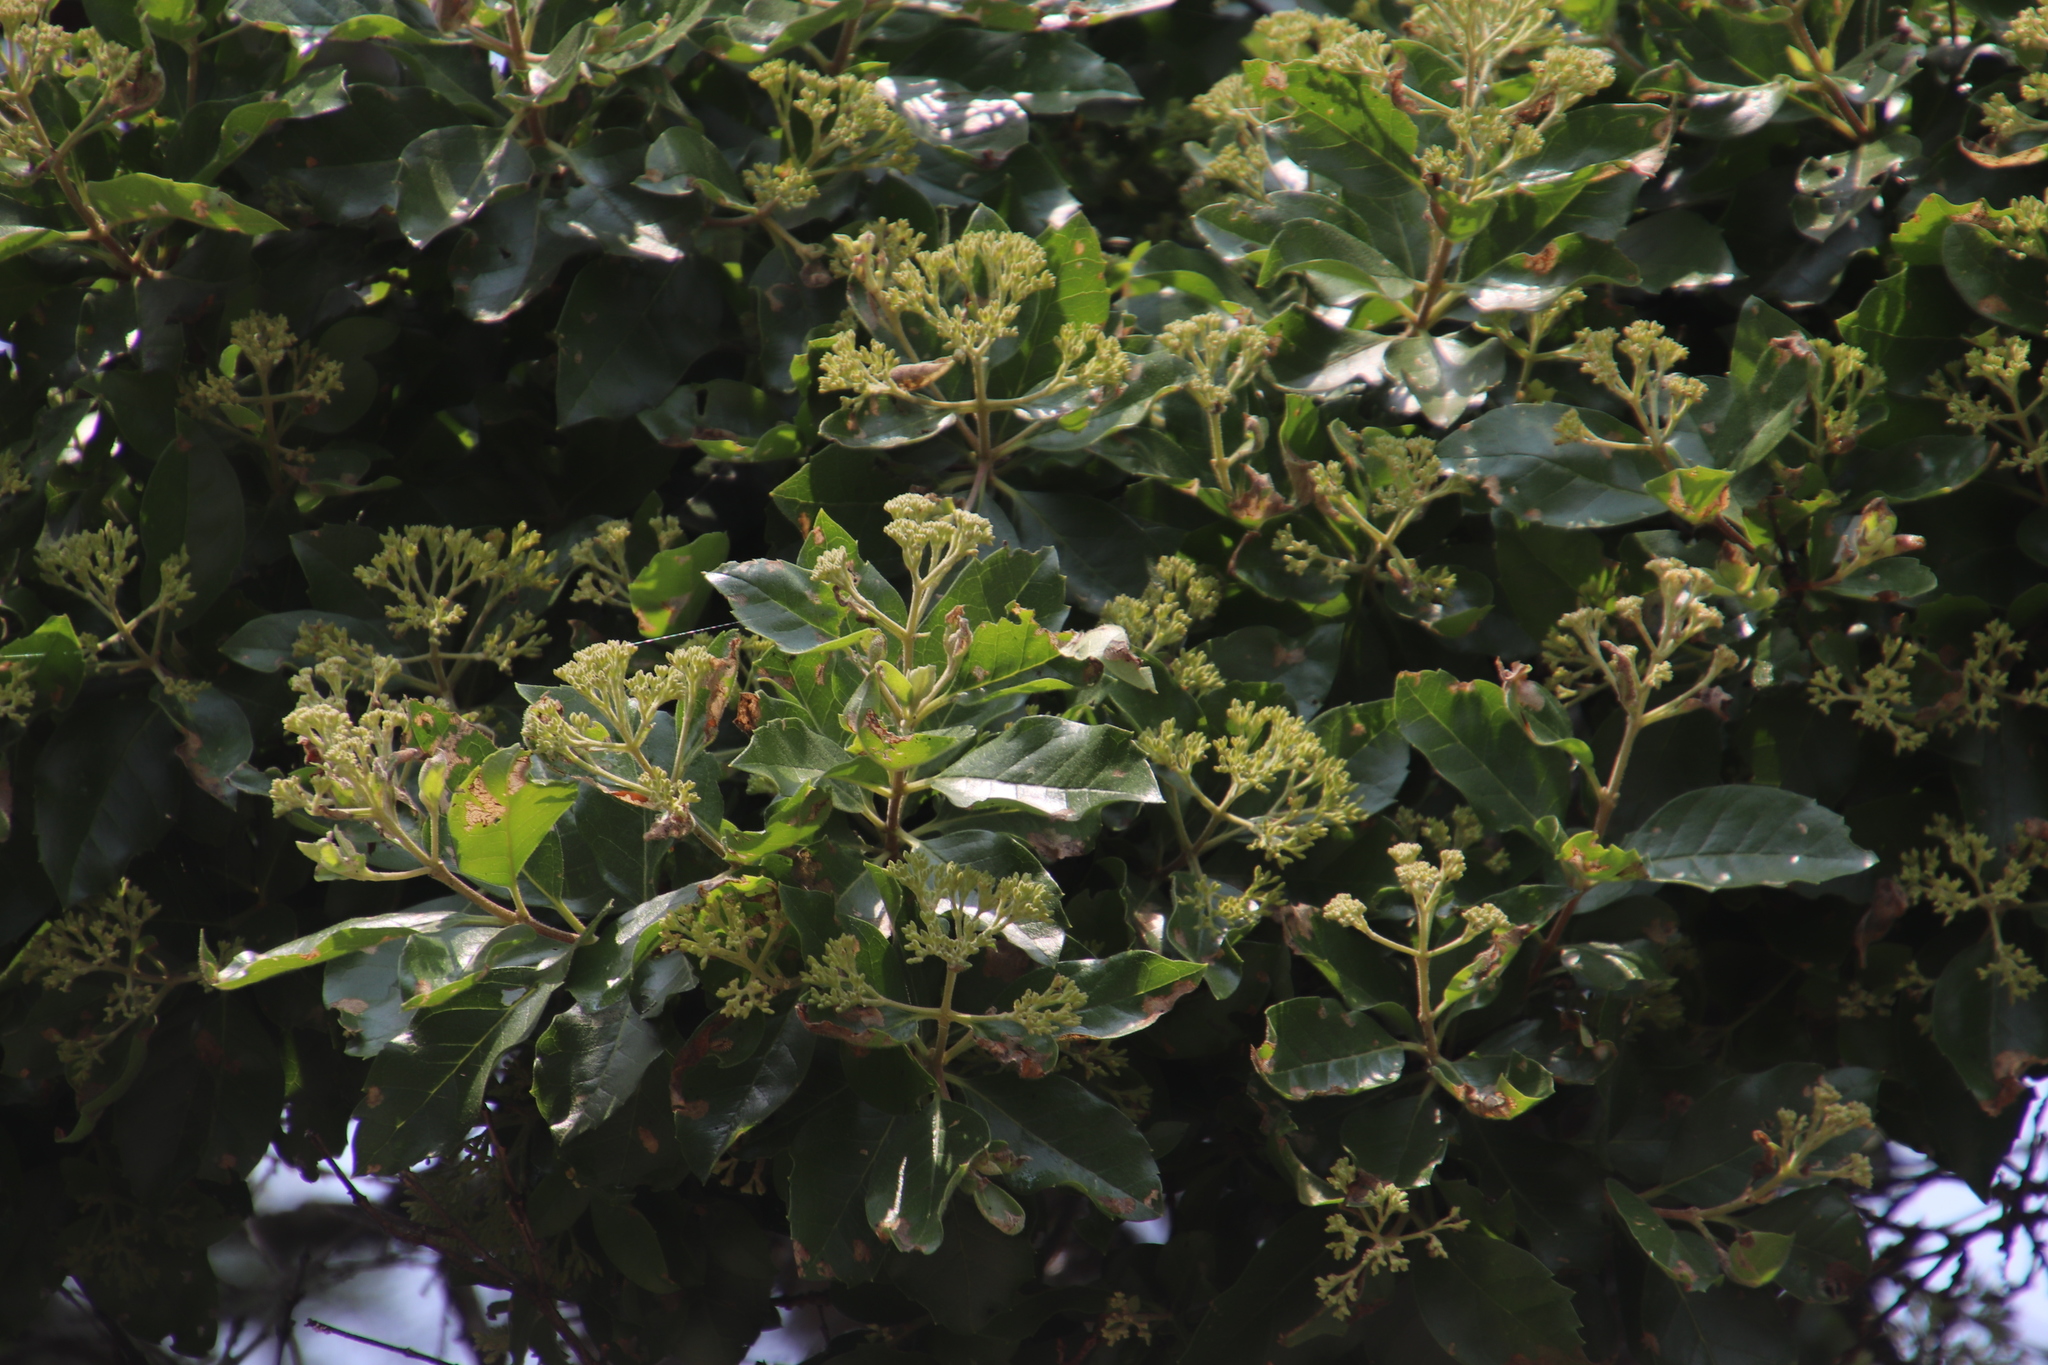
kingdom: Plantae
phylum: Tracheophyta
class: Magnoliopsida
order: Lamiales
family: Stilbaceae
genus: Nuxia
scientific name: Nuxia congesta
